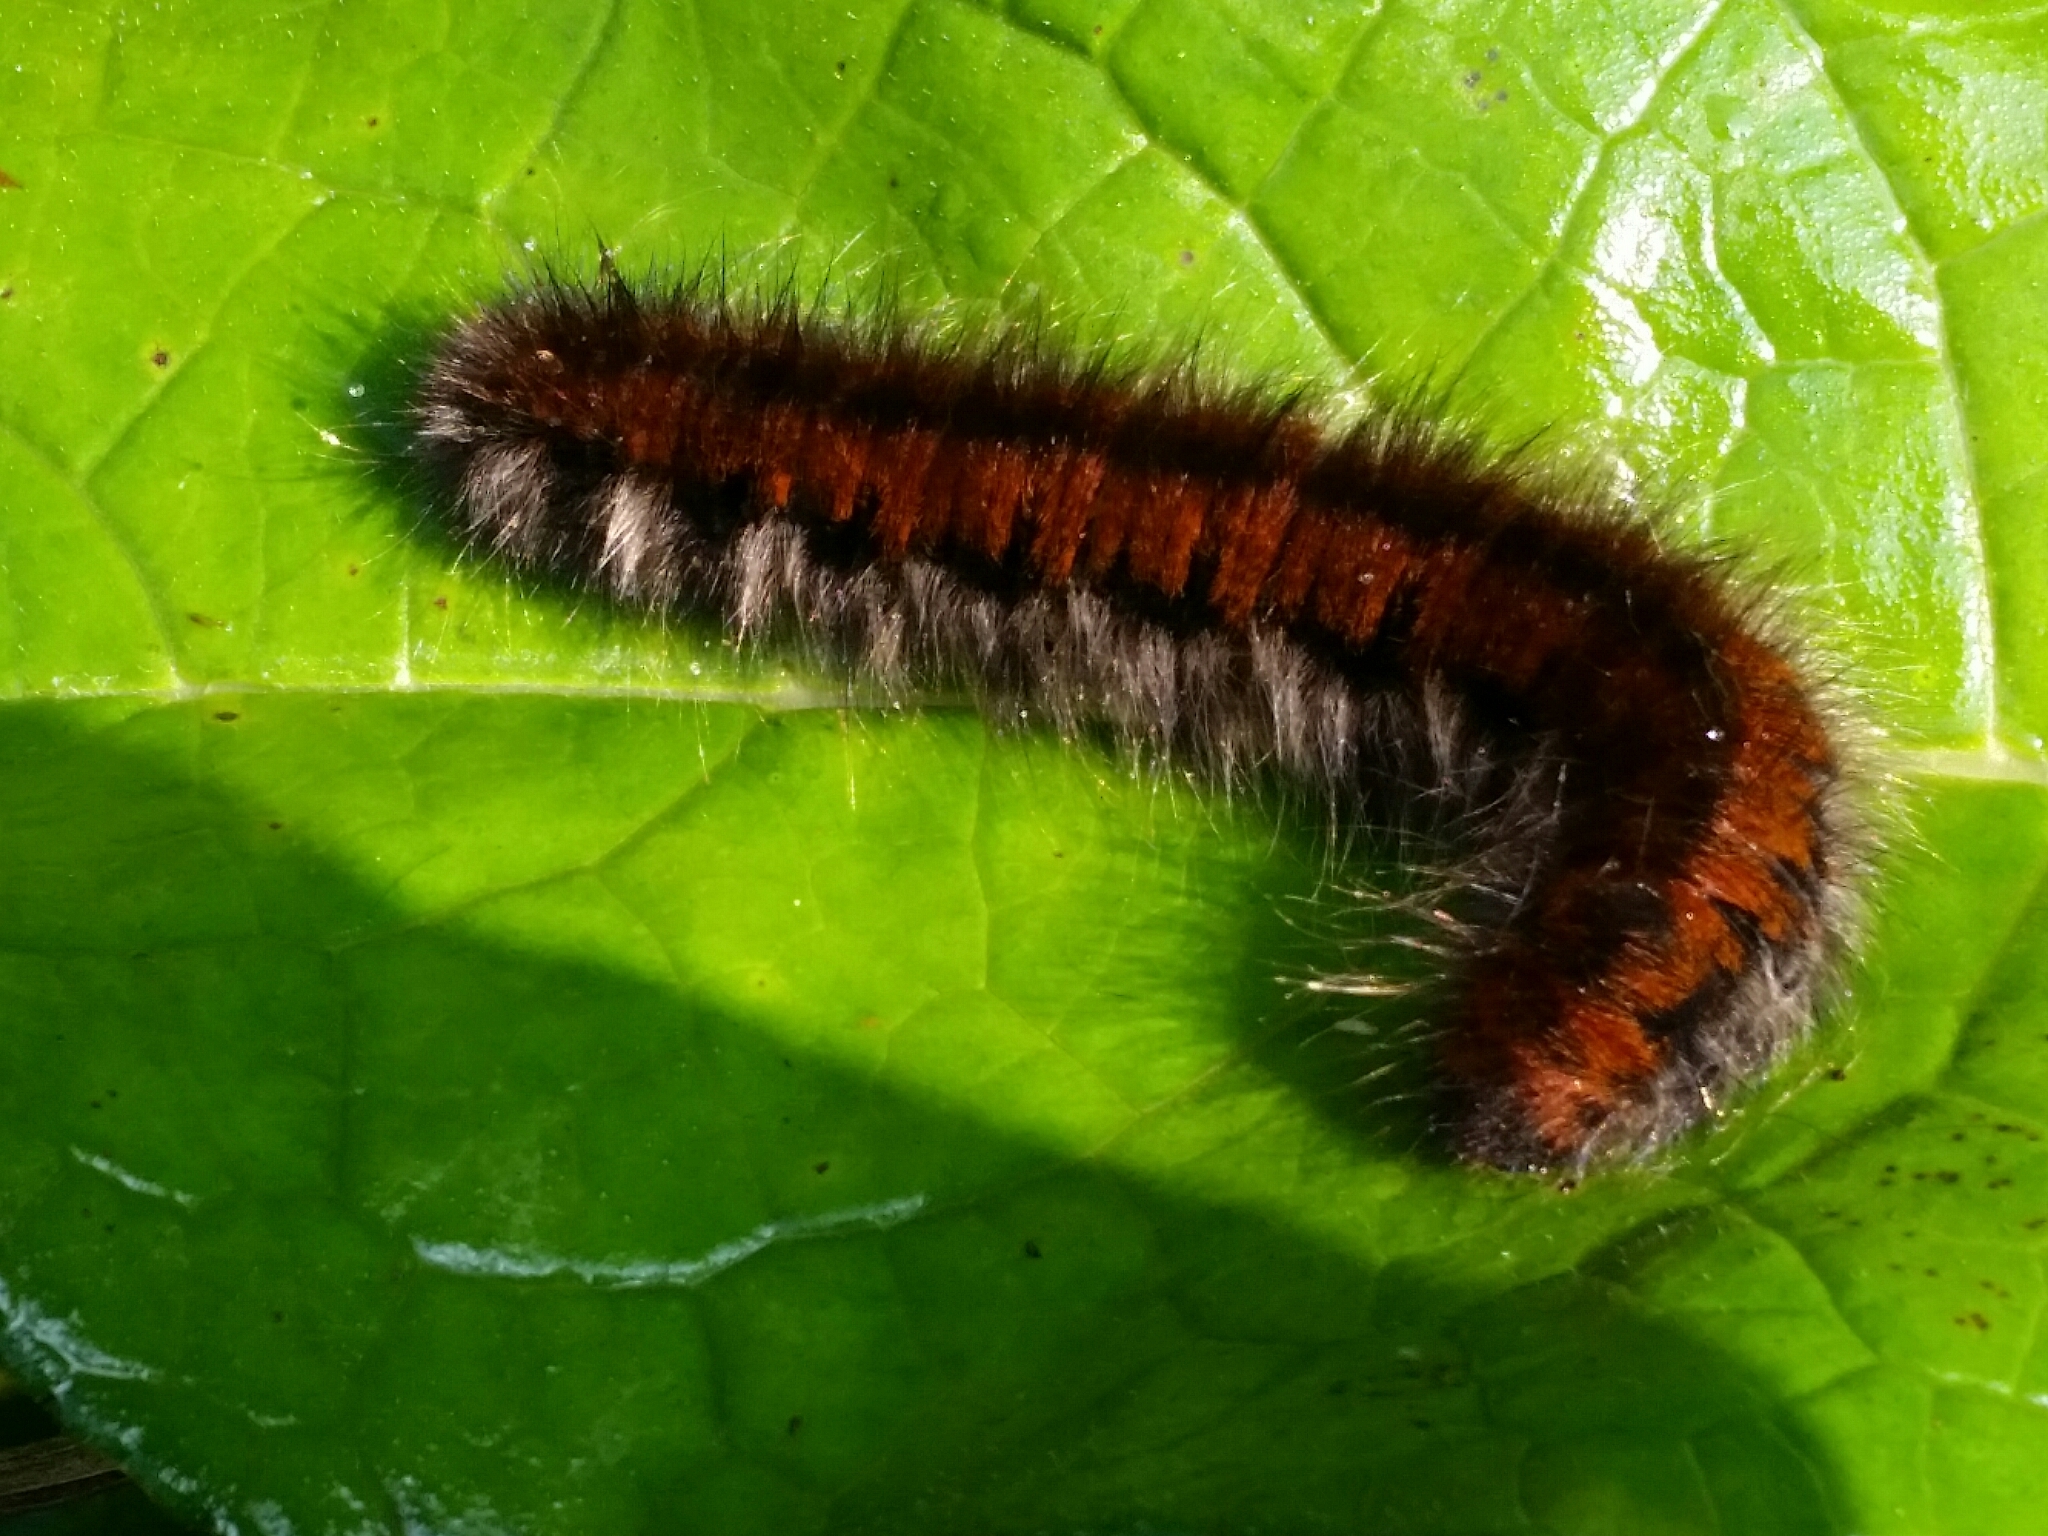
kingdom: Animalia
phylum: Arthropoda
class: Insecta
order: Lepidoptera
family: Lasiocampidae
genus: Macrothylacia
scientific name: Macrothylacia rubi
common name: Fox moth
